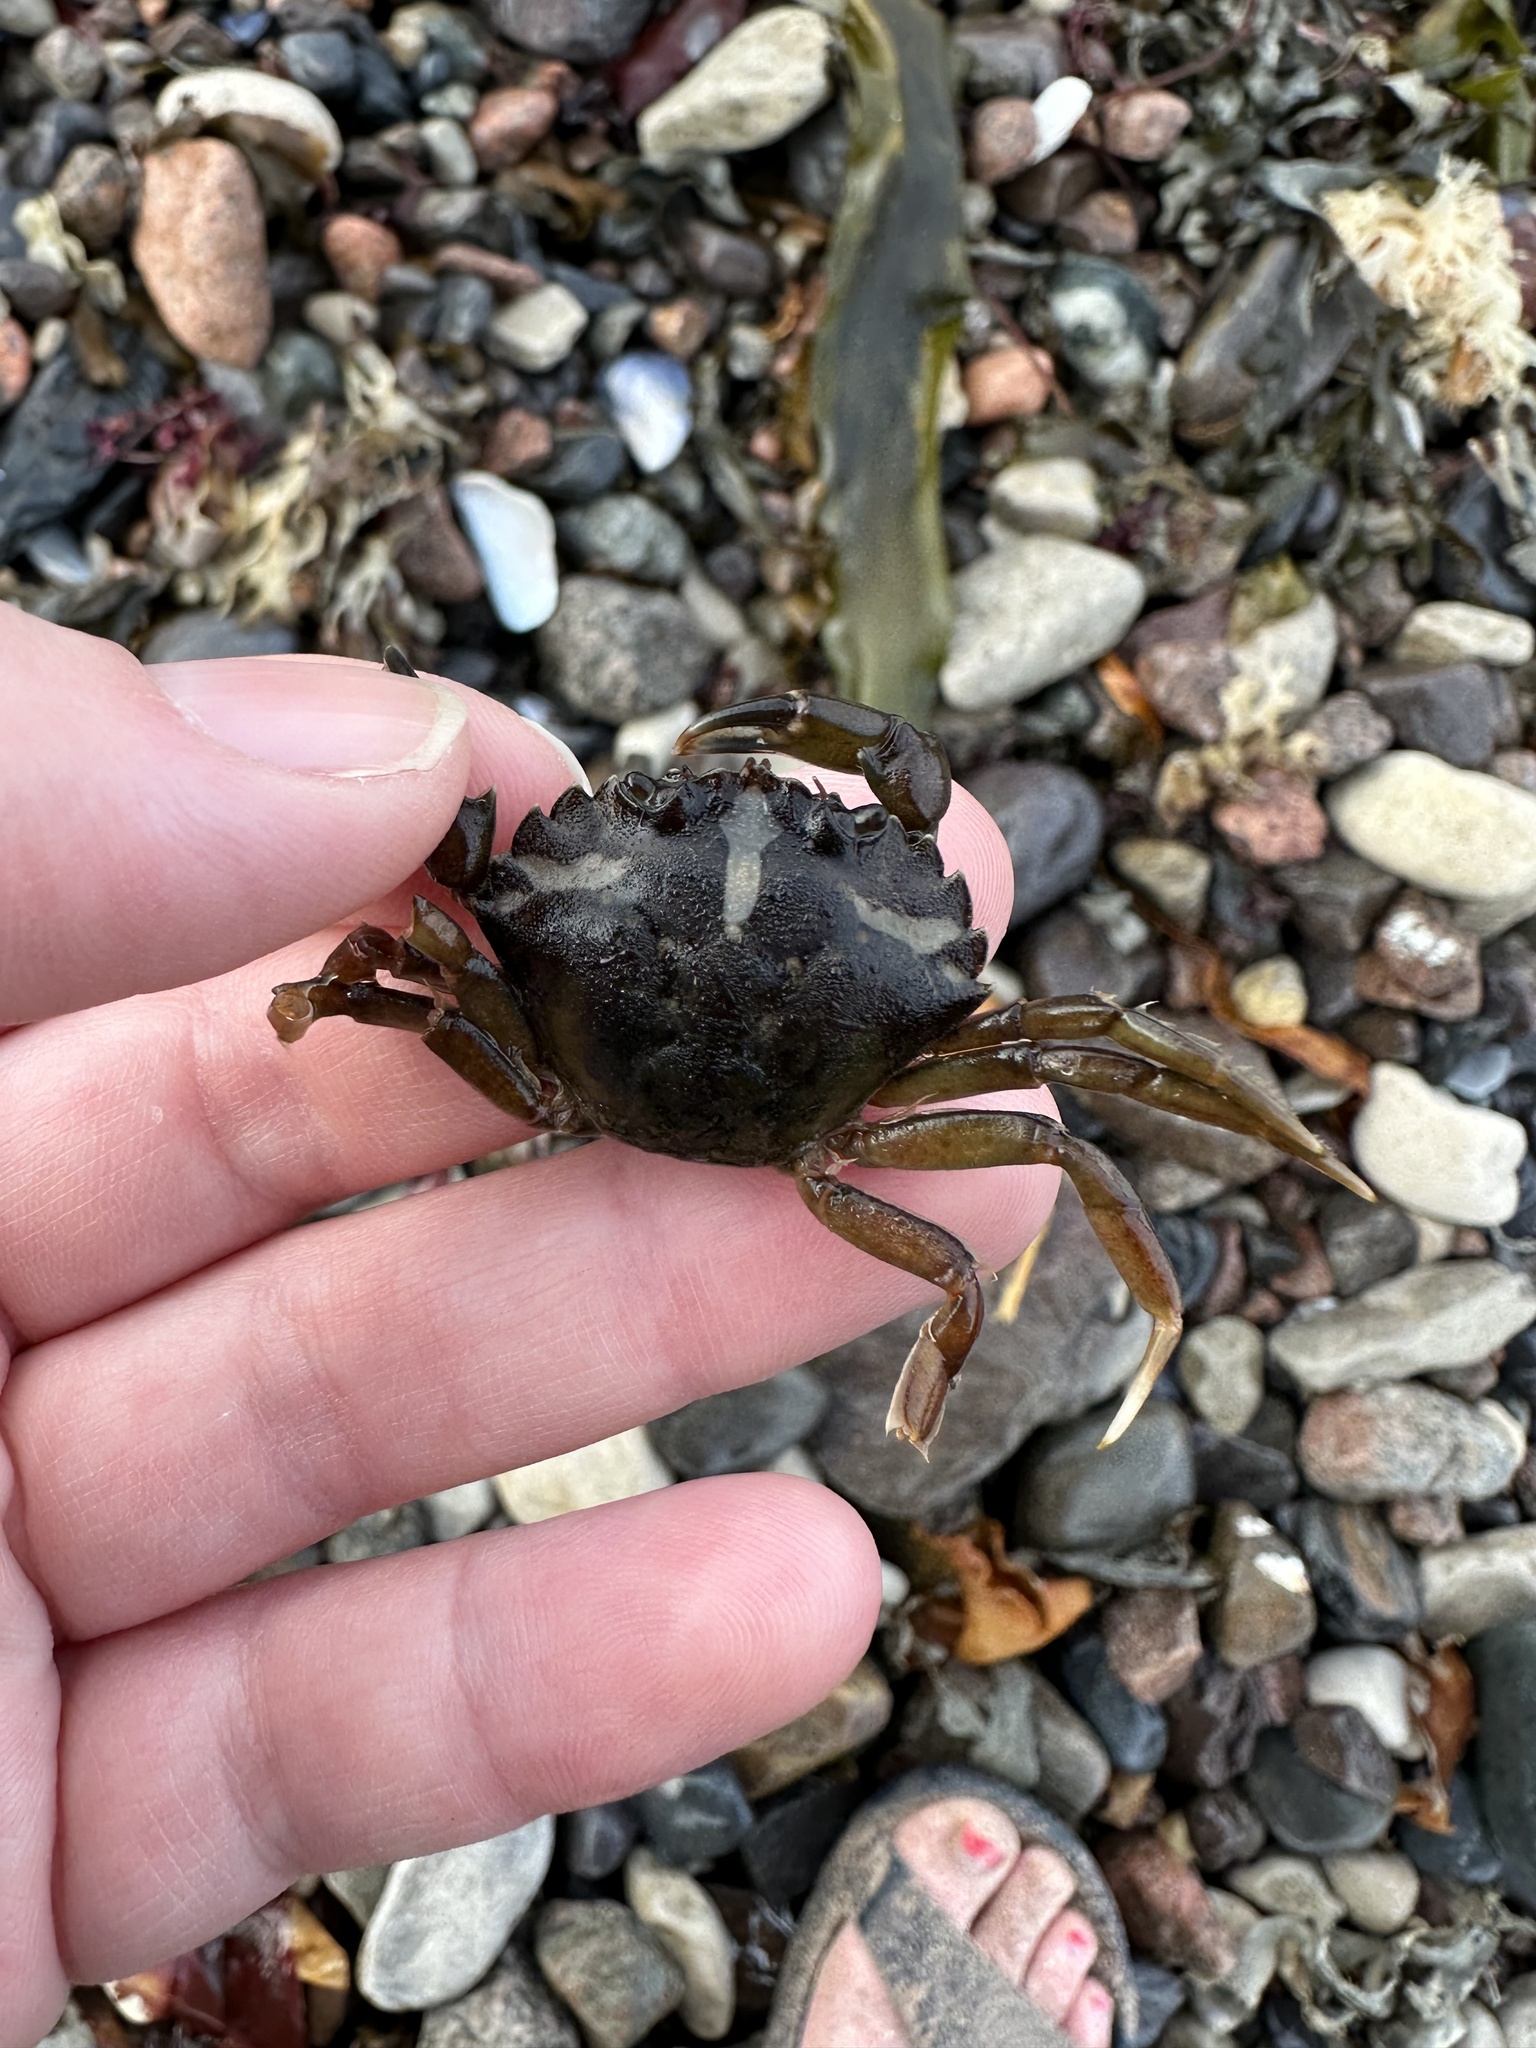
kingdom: Animalia
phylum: Arthropoda
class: Malacostraca
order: Decapoda
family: Carcinidae
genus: Carcinus
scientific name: Carcinus maenas
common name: European green crab
